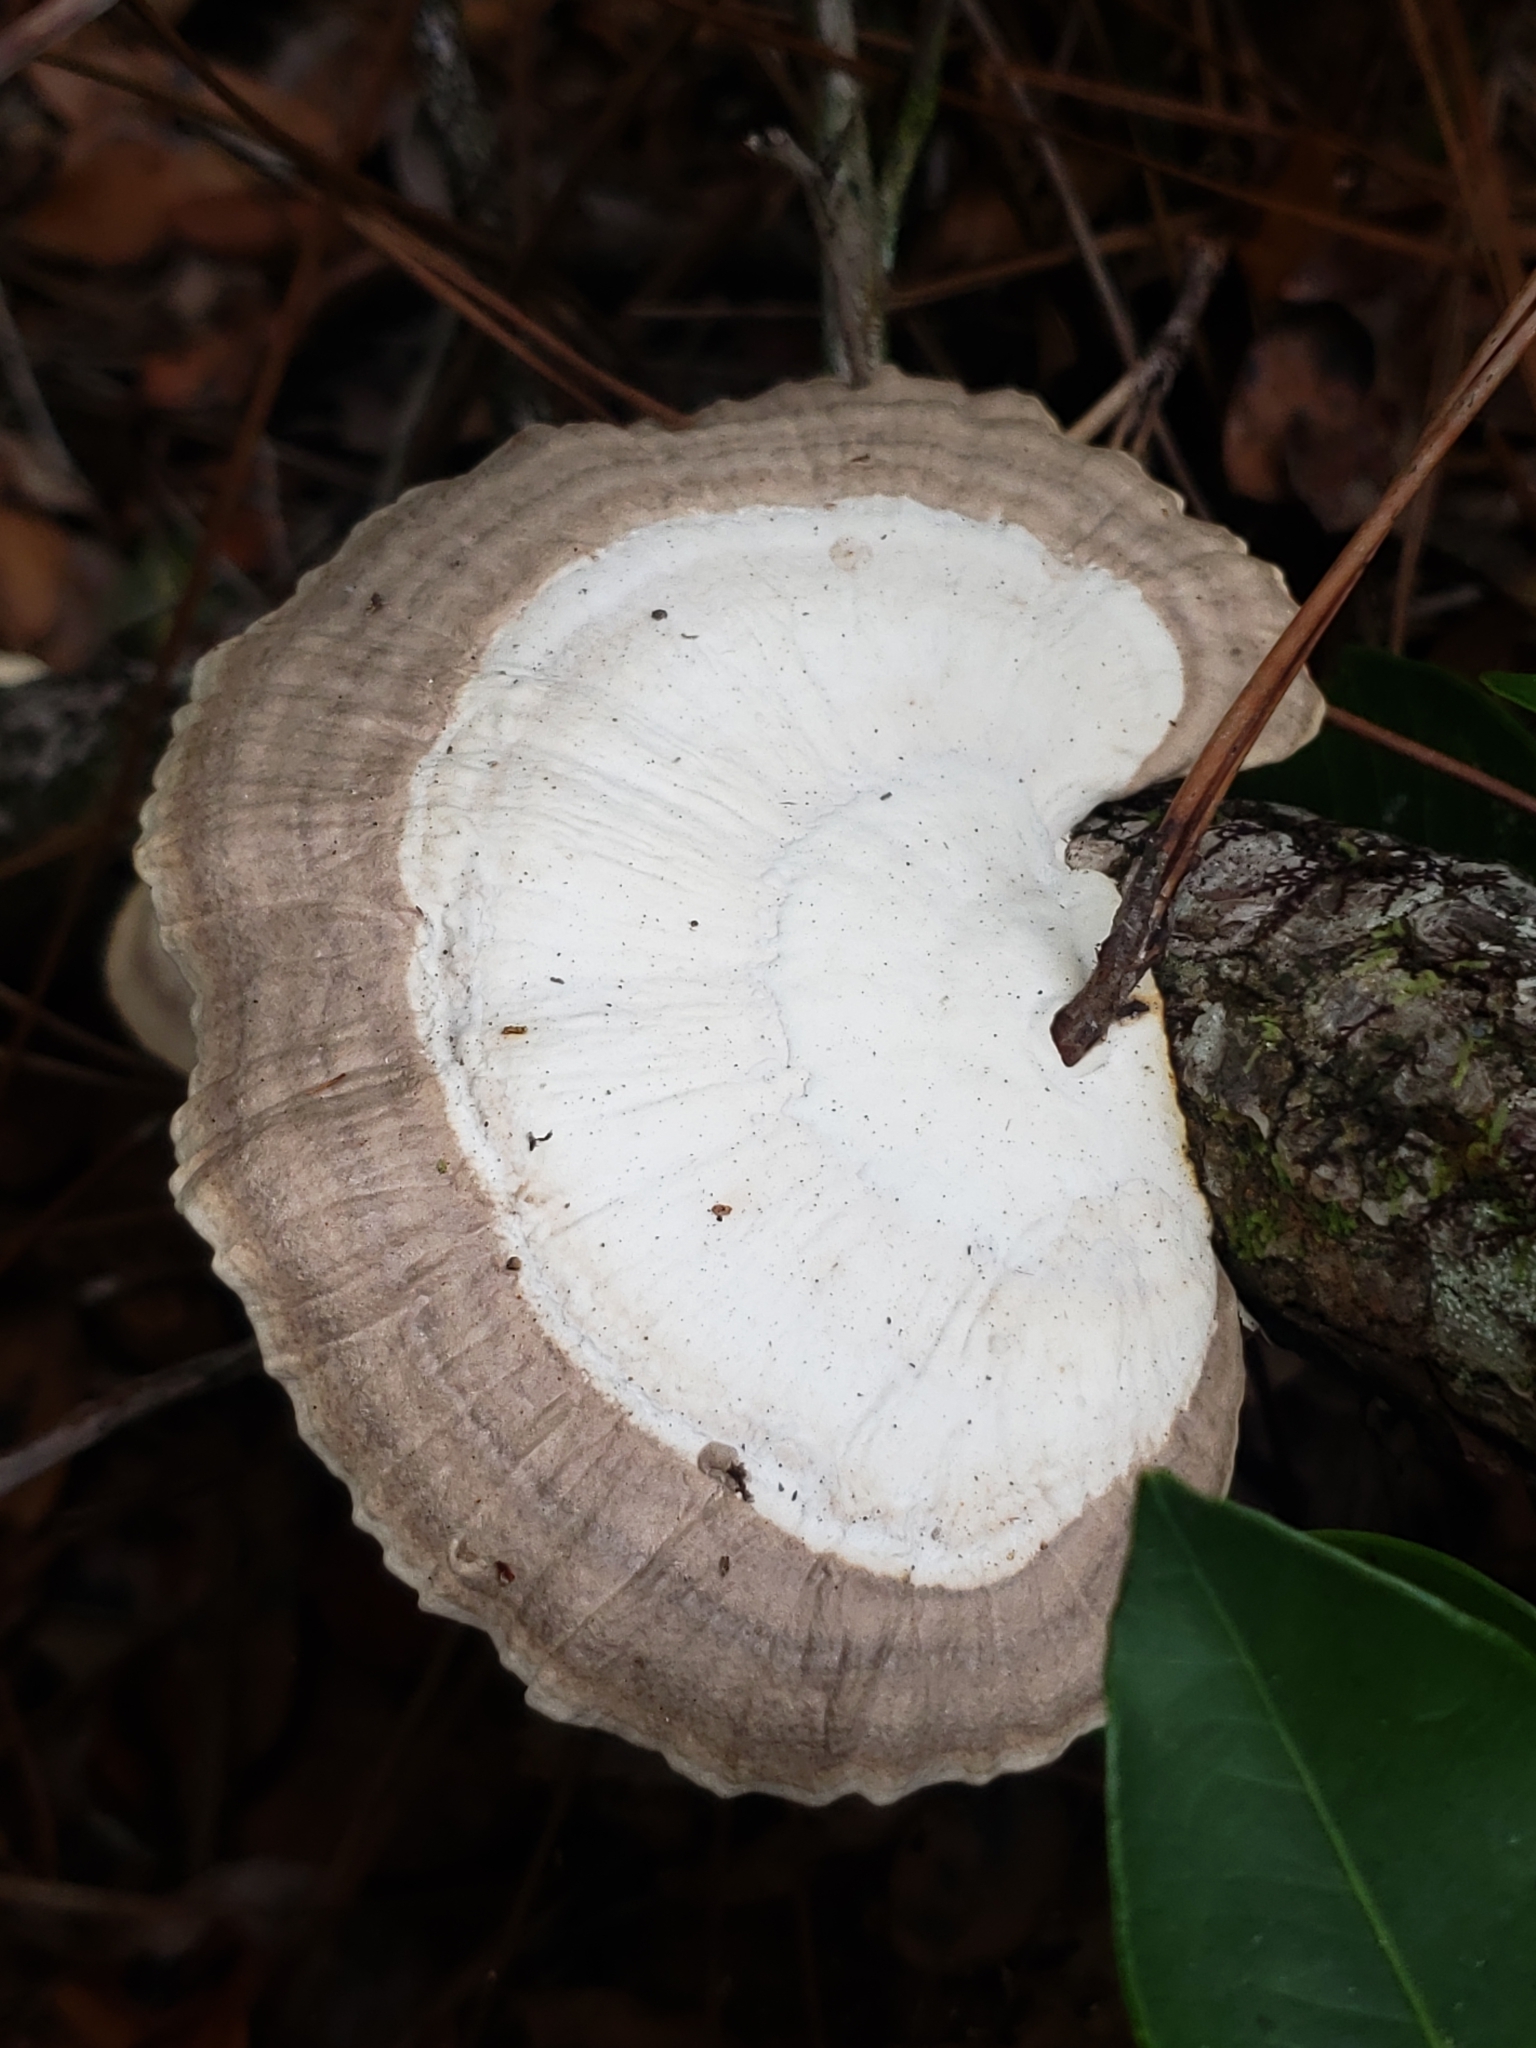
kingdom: Fungi
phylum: Basidiomycota
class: Agaricomycetes
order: Polyporales
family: Polyporaceae
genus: Trametes
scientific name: Trametes lactinea
